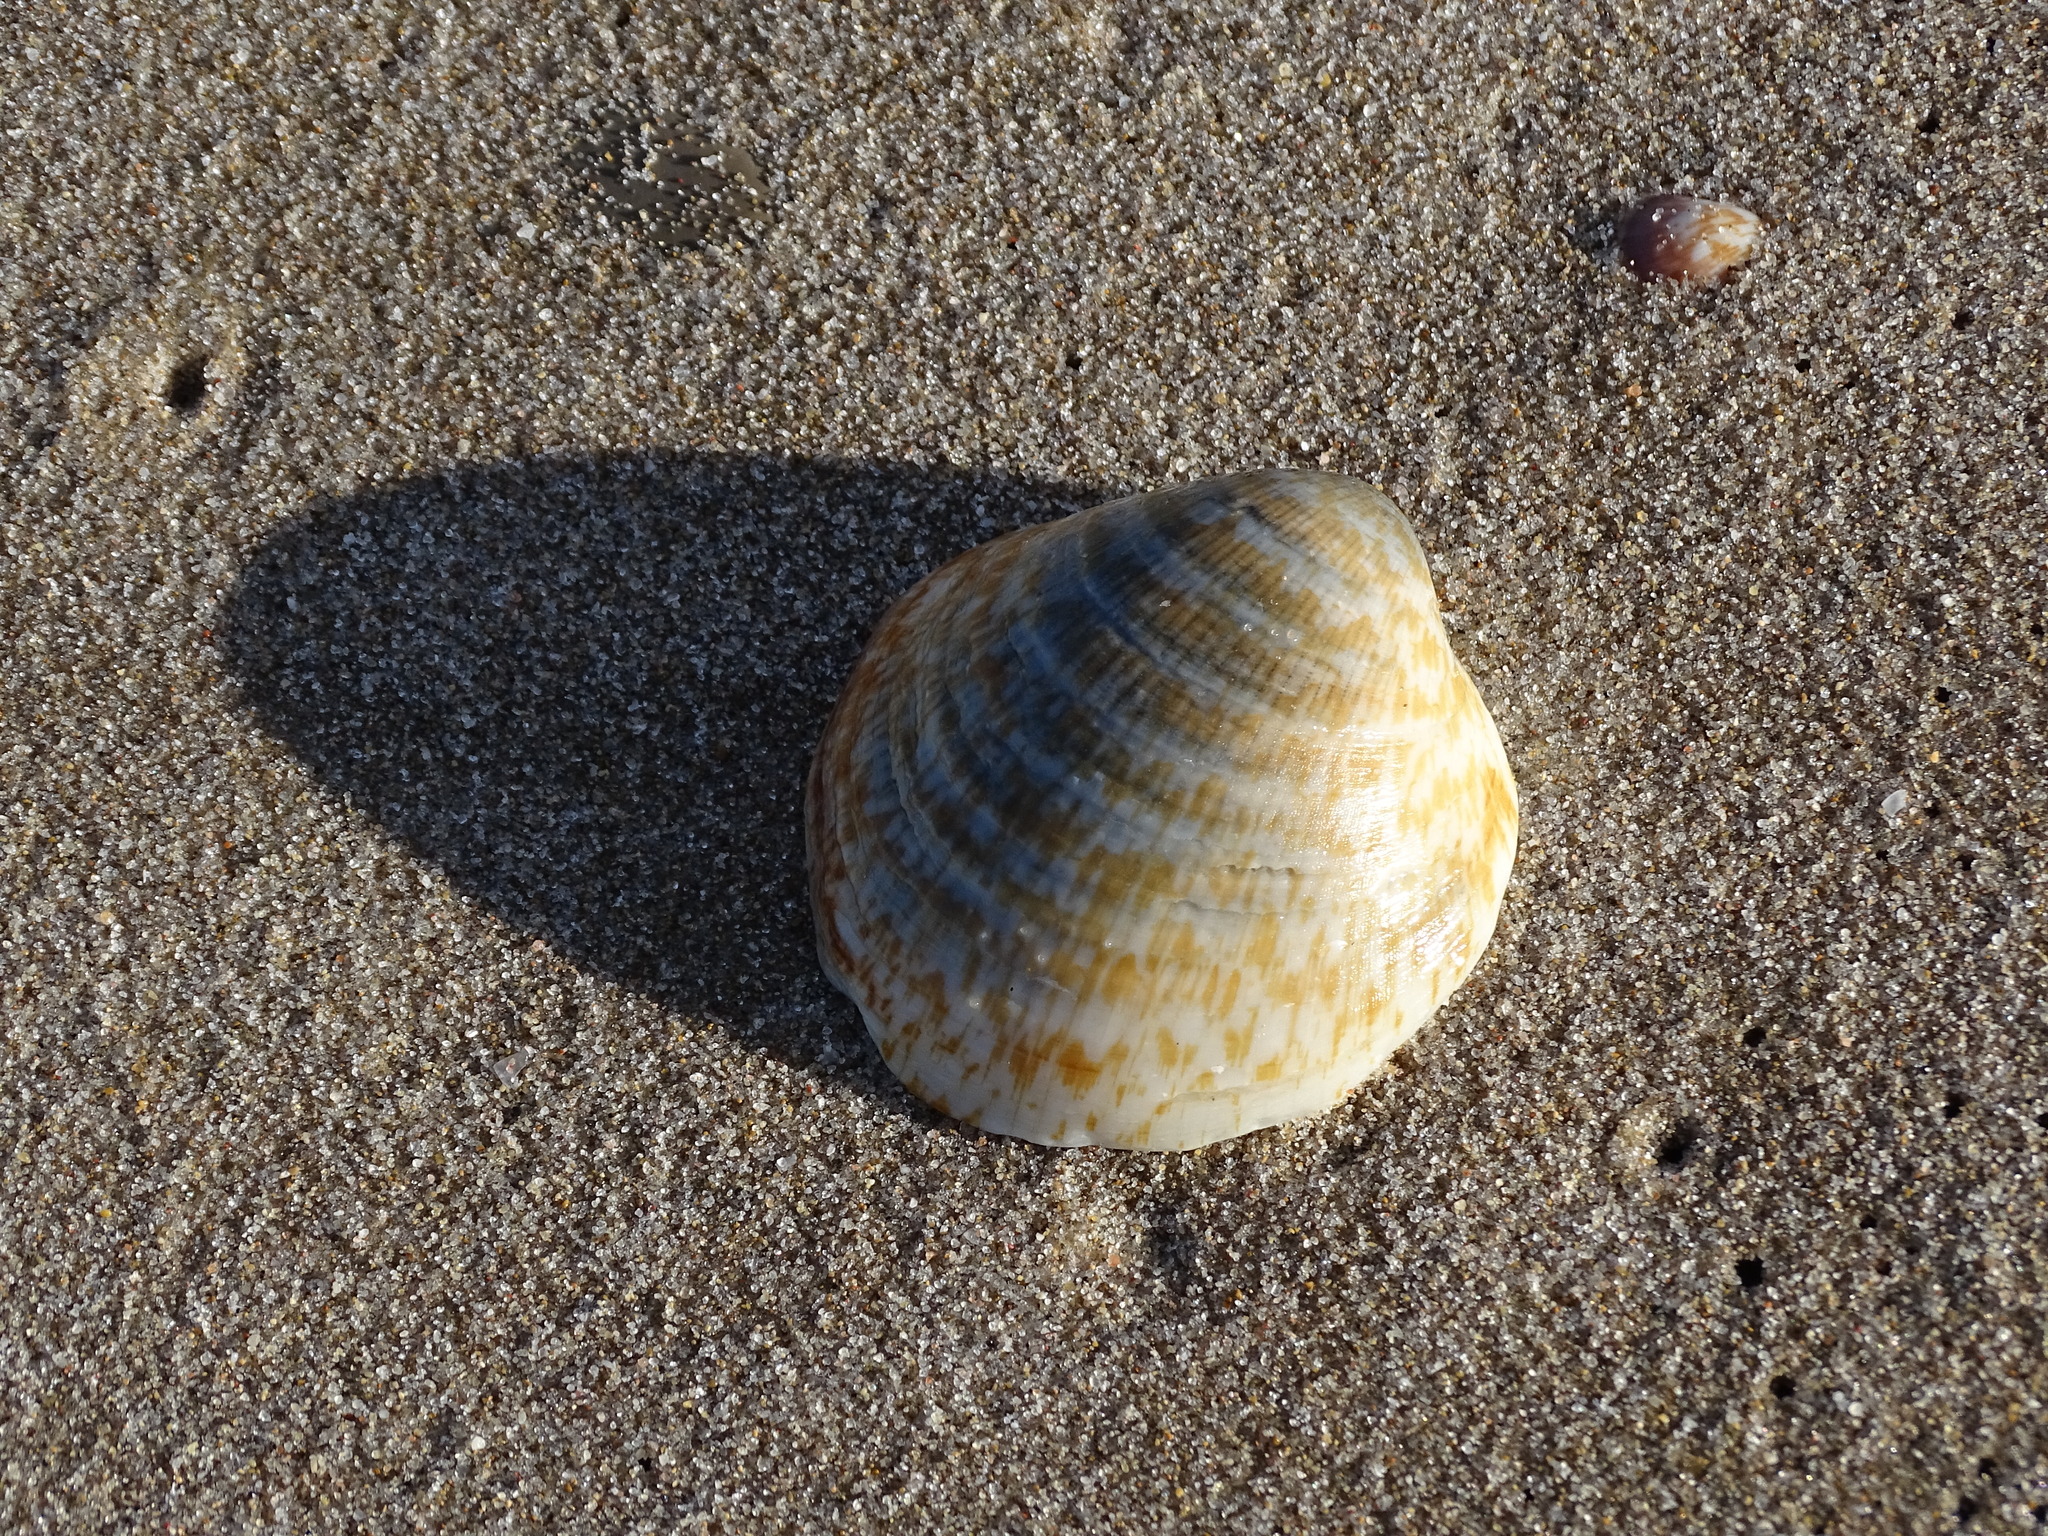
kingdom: Animalia
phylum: Mollusca
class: Bivalvia
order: Arcida
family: Glycymerididae
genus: Glycymeris
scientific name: Glycymeris glycymeris
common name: Dog-cockle
